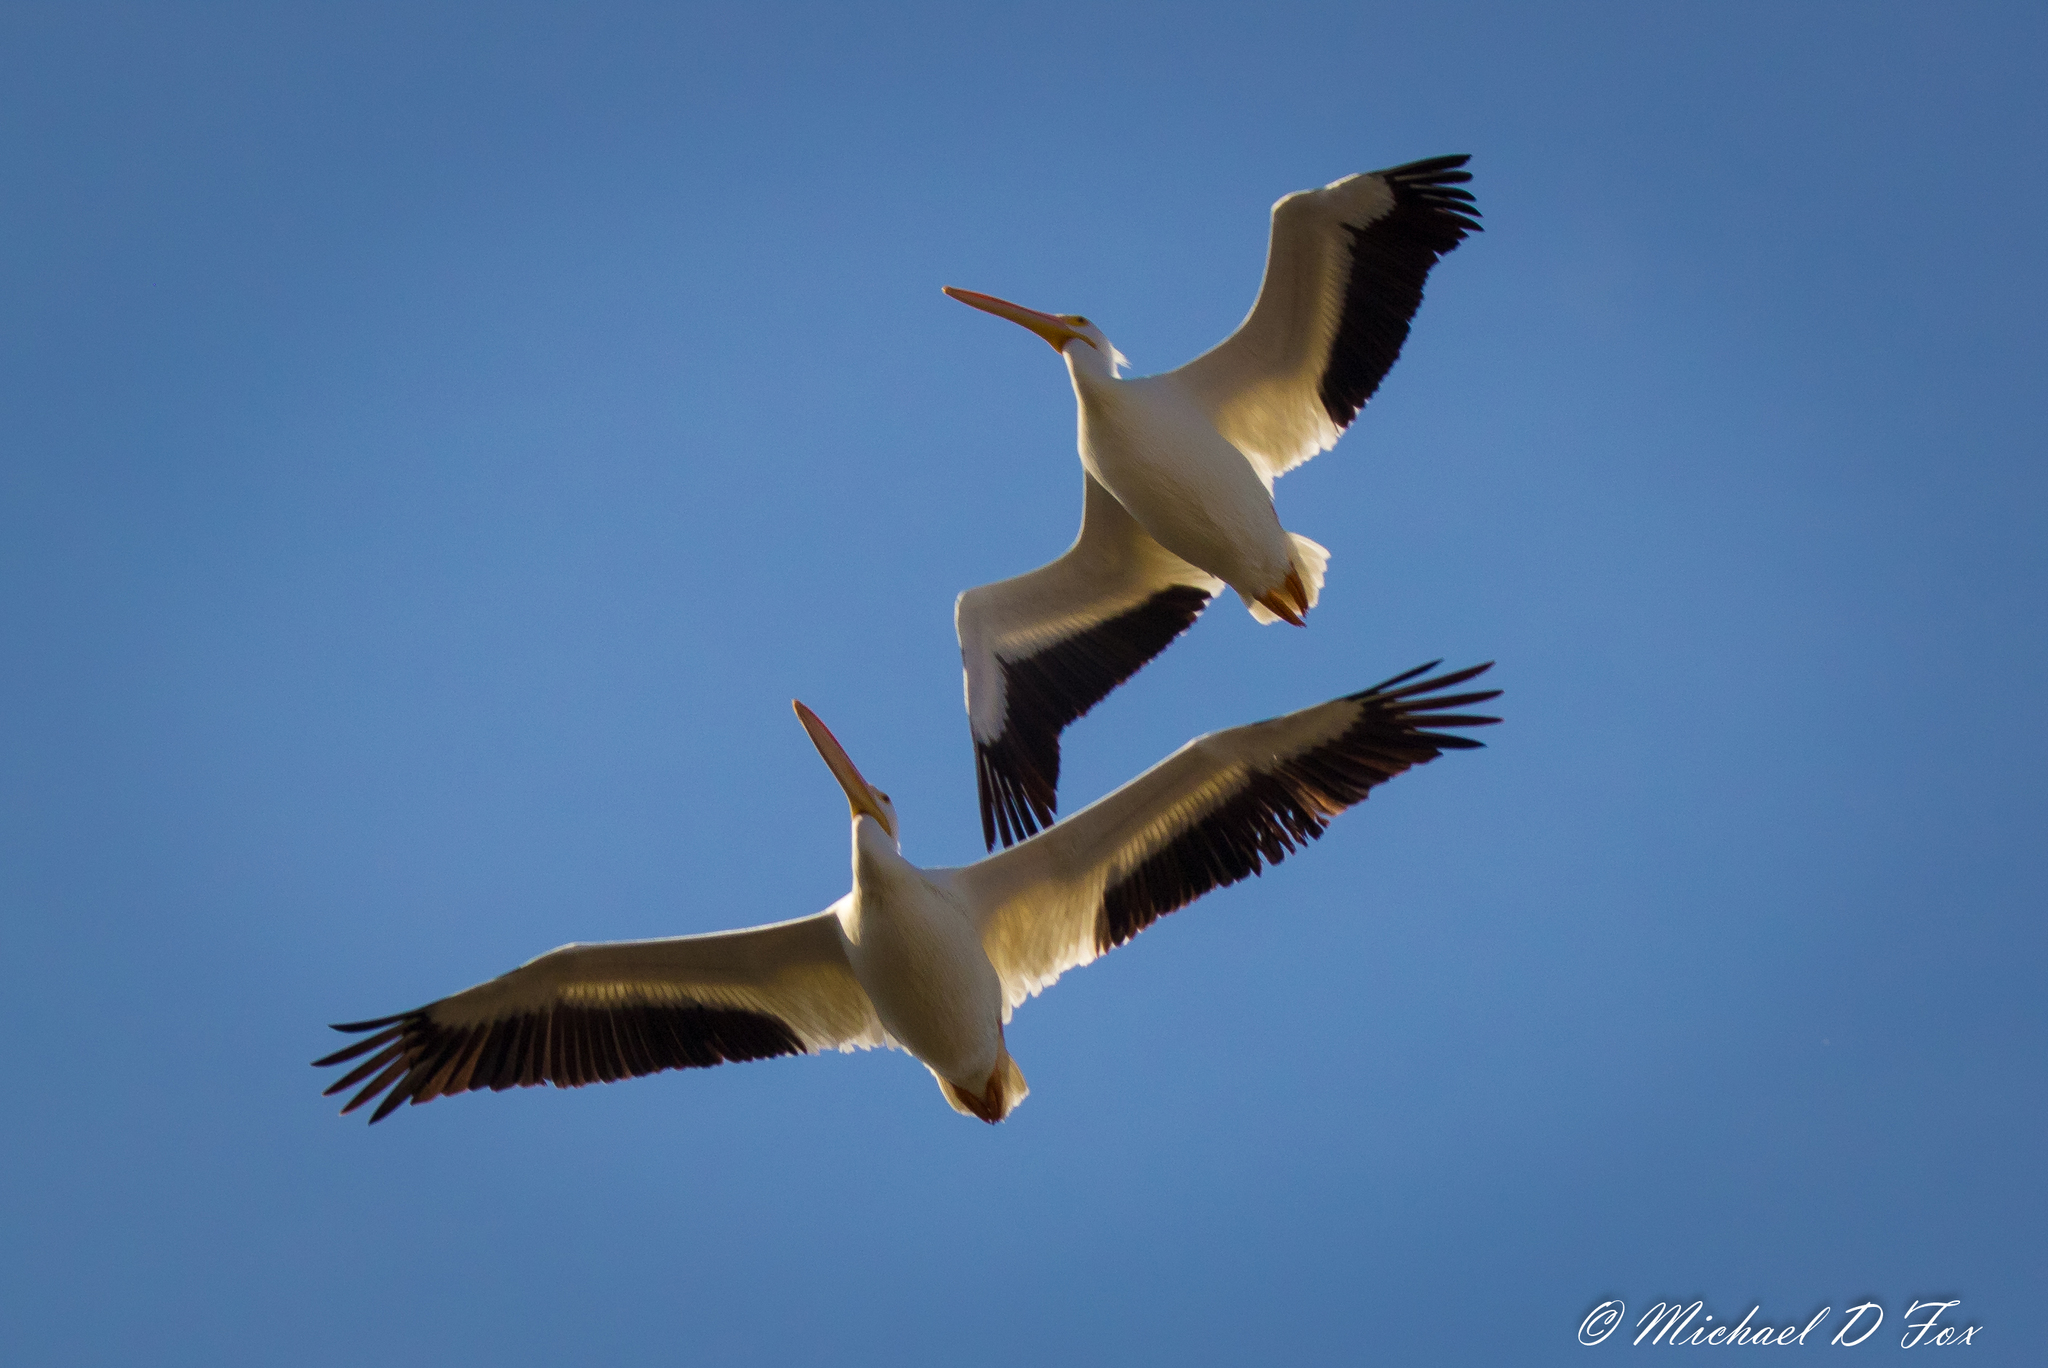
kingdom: Animalia
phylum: Chordata
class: Aves
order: Pelecaniformes
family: Pelecanidae
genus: Pelecanus
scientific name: Pelecanus erythrorhynchos
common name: American white pelican
